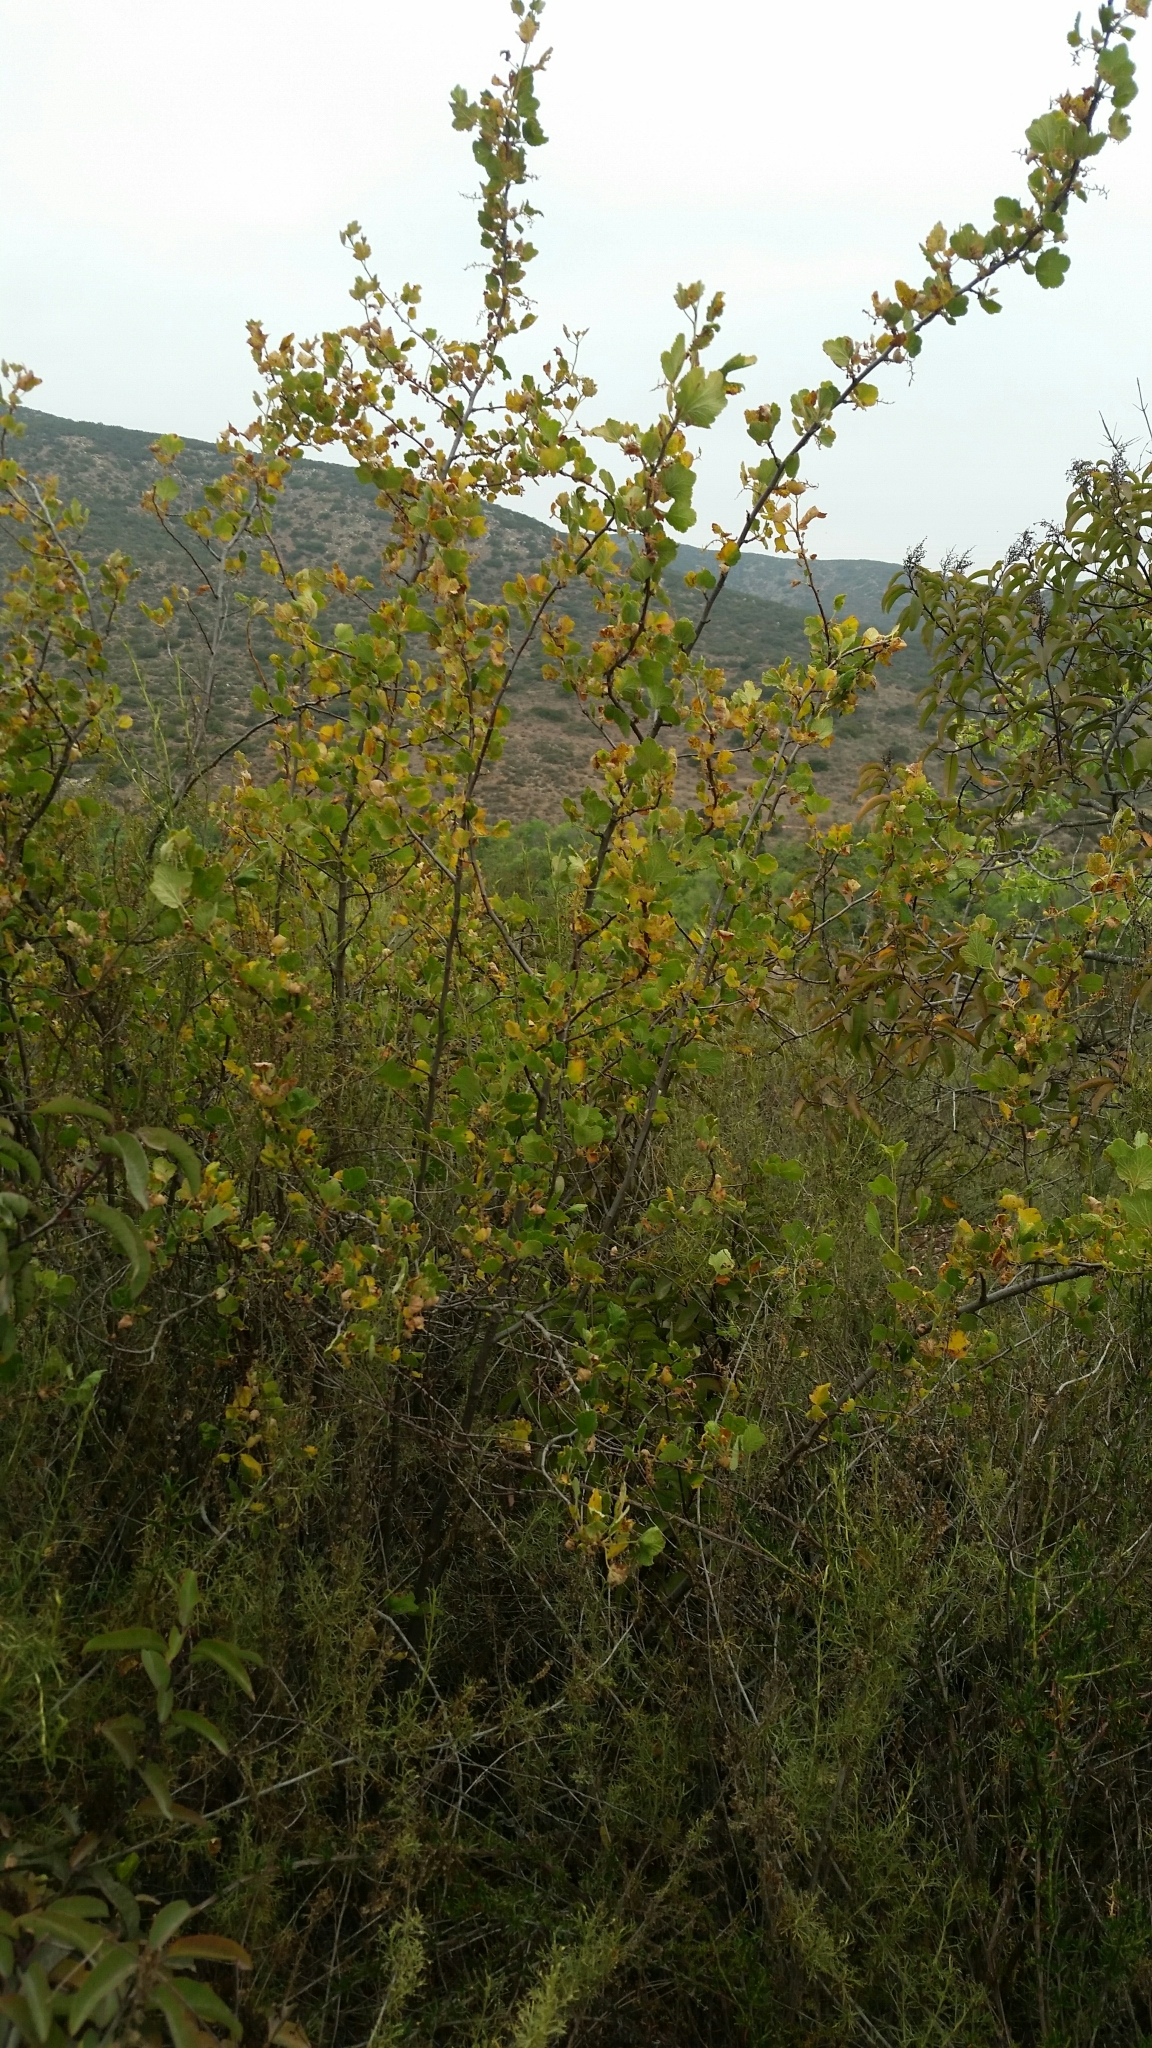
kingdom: Plantae
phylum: Tracheophyta
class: Magnoliopsida
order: Saxifragales
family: Grossulariaceae
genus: Ribes
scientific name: Ribes indecorum
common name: White-flower currant
